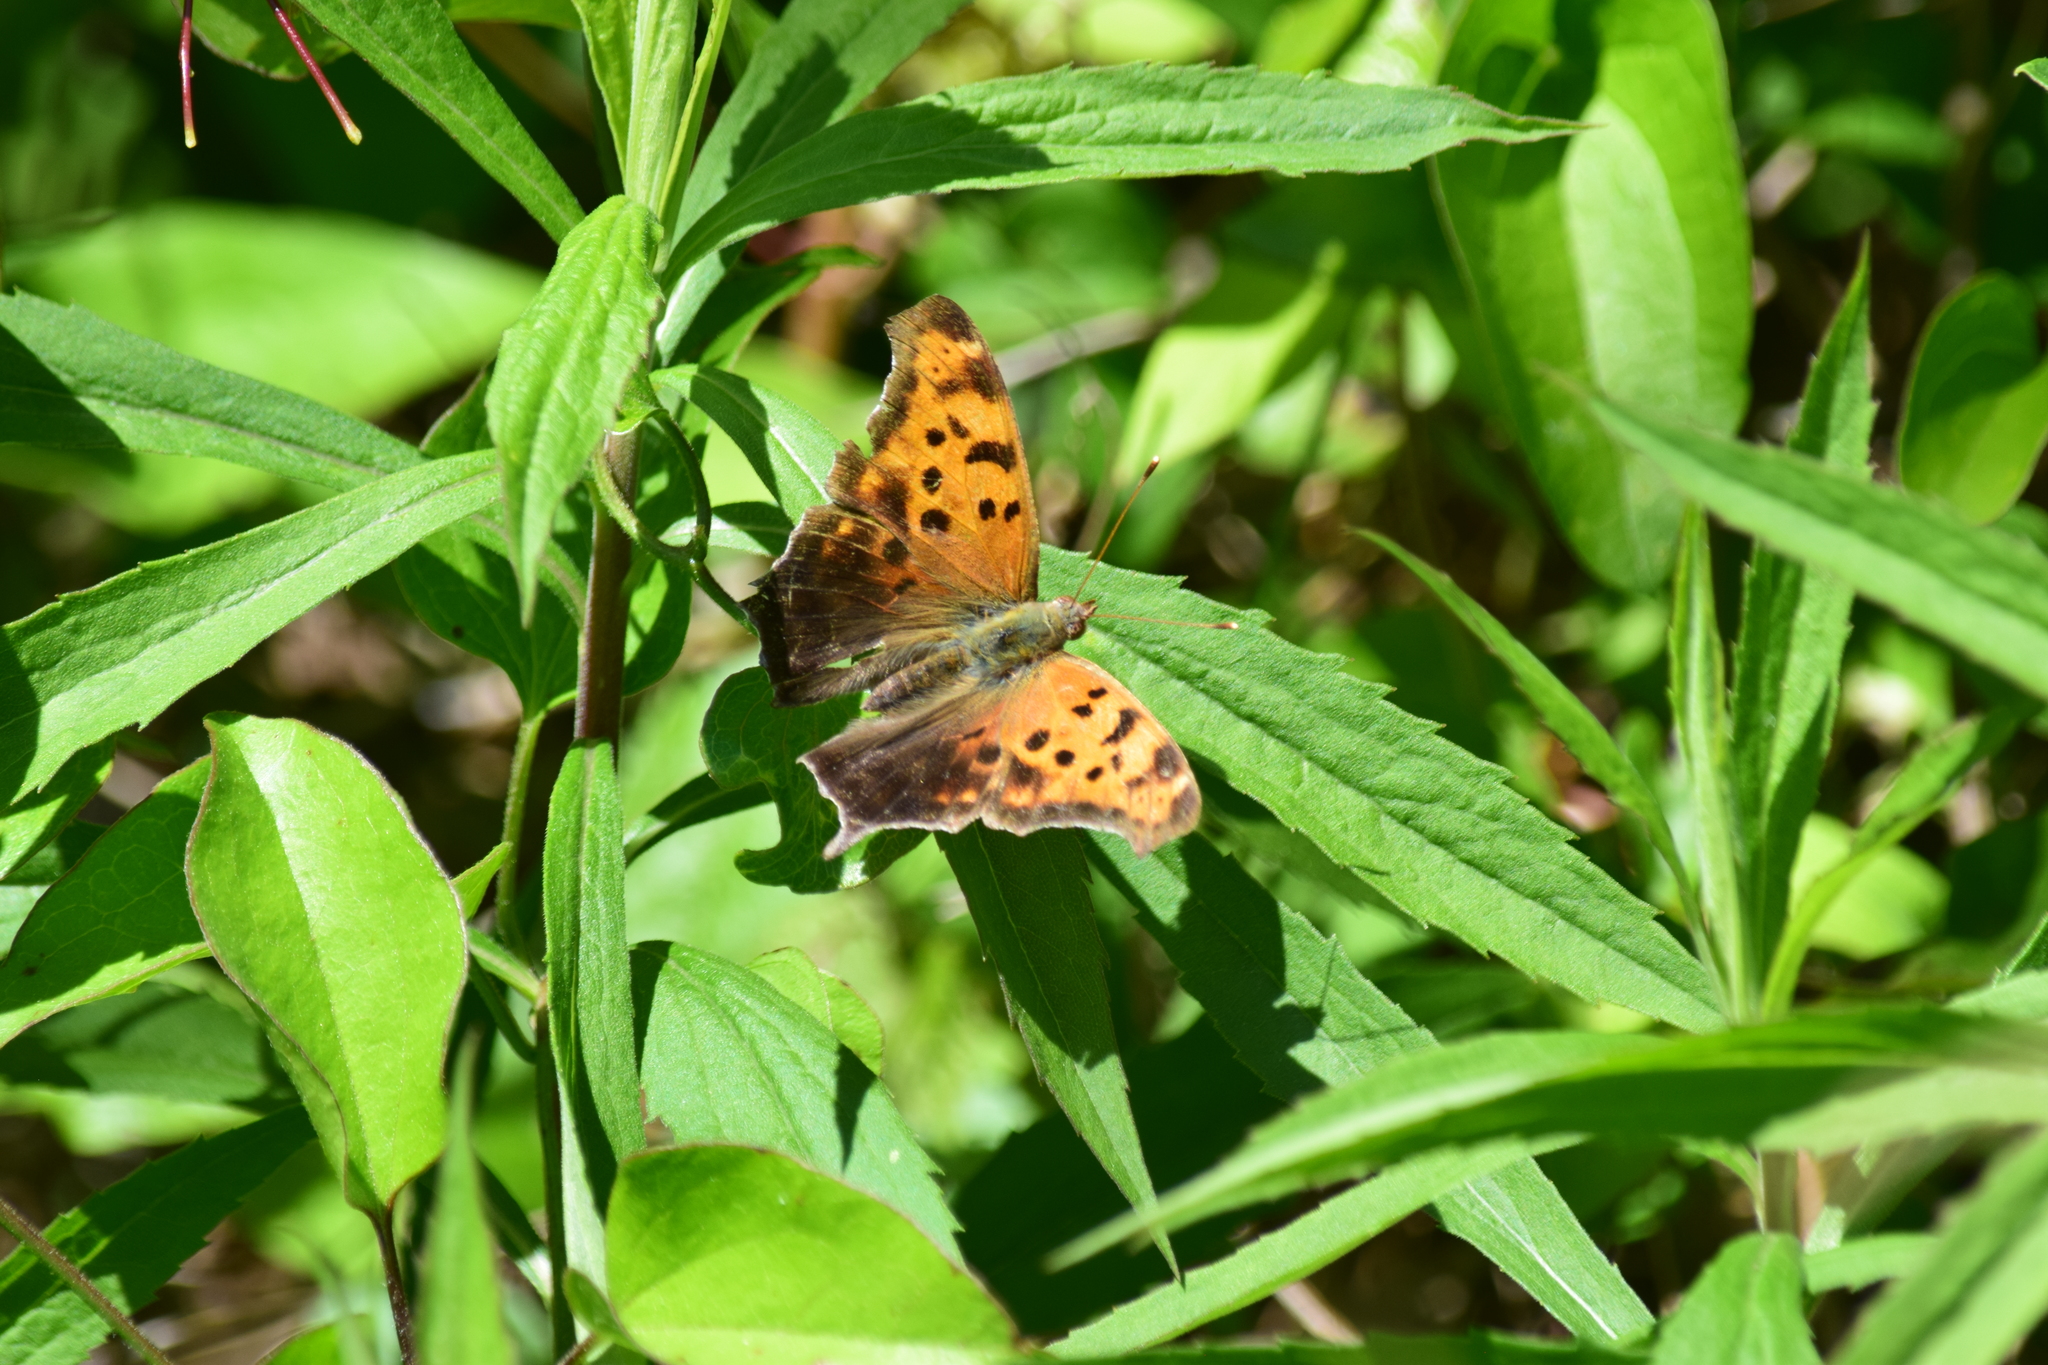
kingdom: Animalia
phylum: Arthropoda
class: Insecta
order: Lepidoptera
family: Nymphalidae
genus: Polygonia
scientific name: Polygonia interrogationis
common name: Question mark
